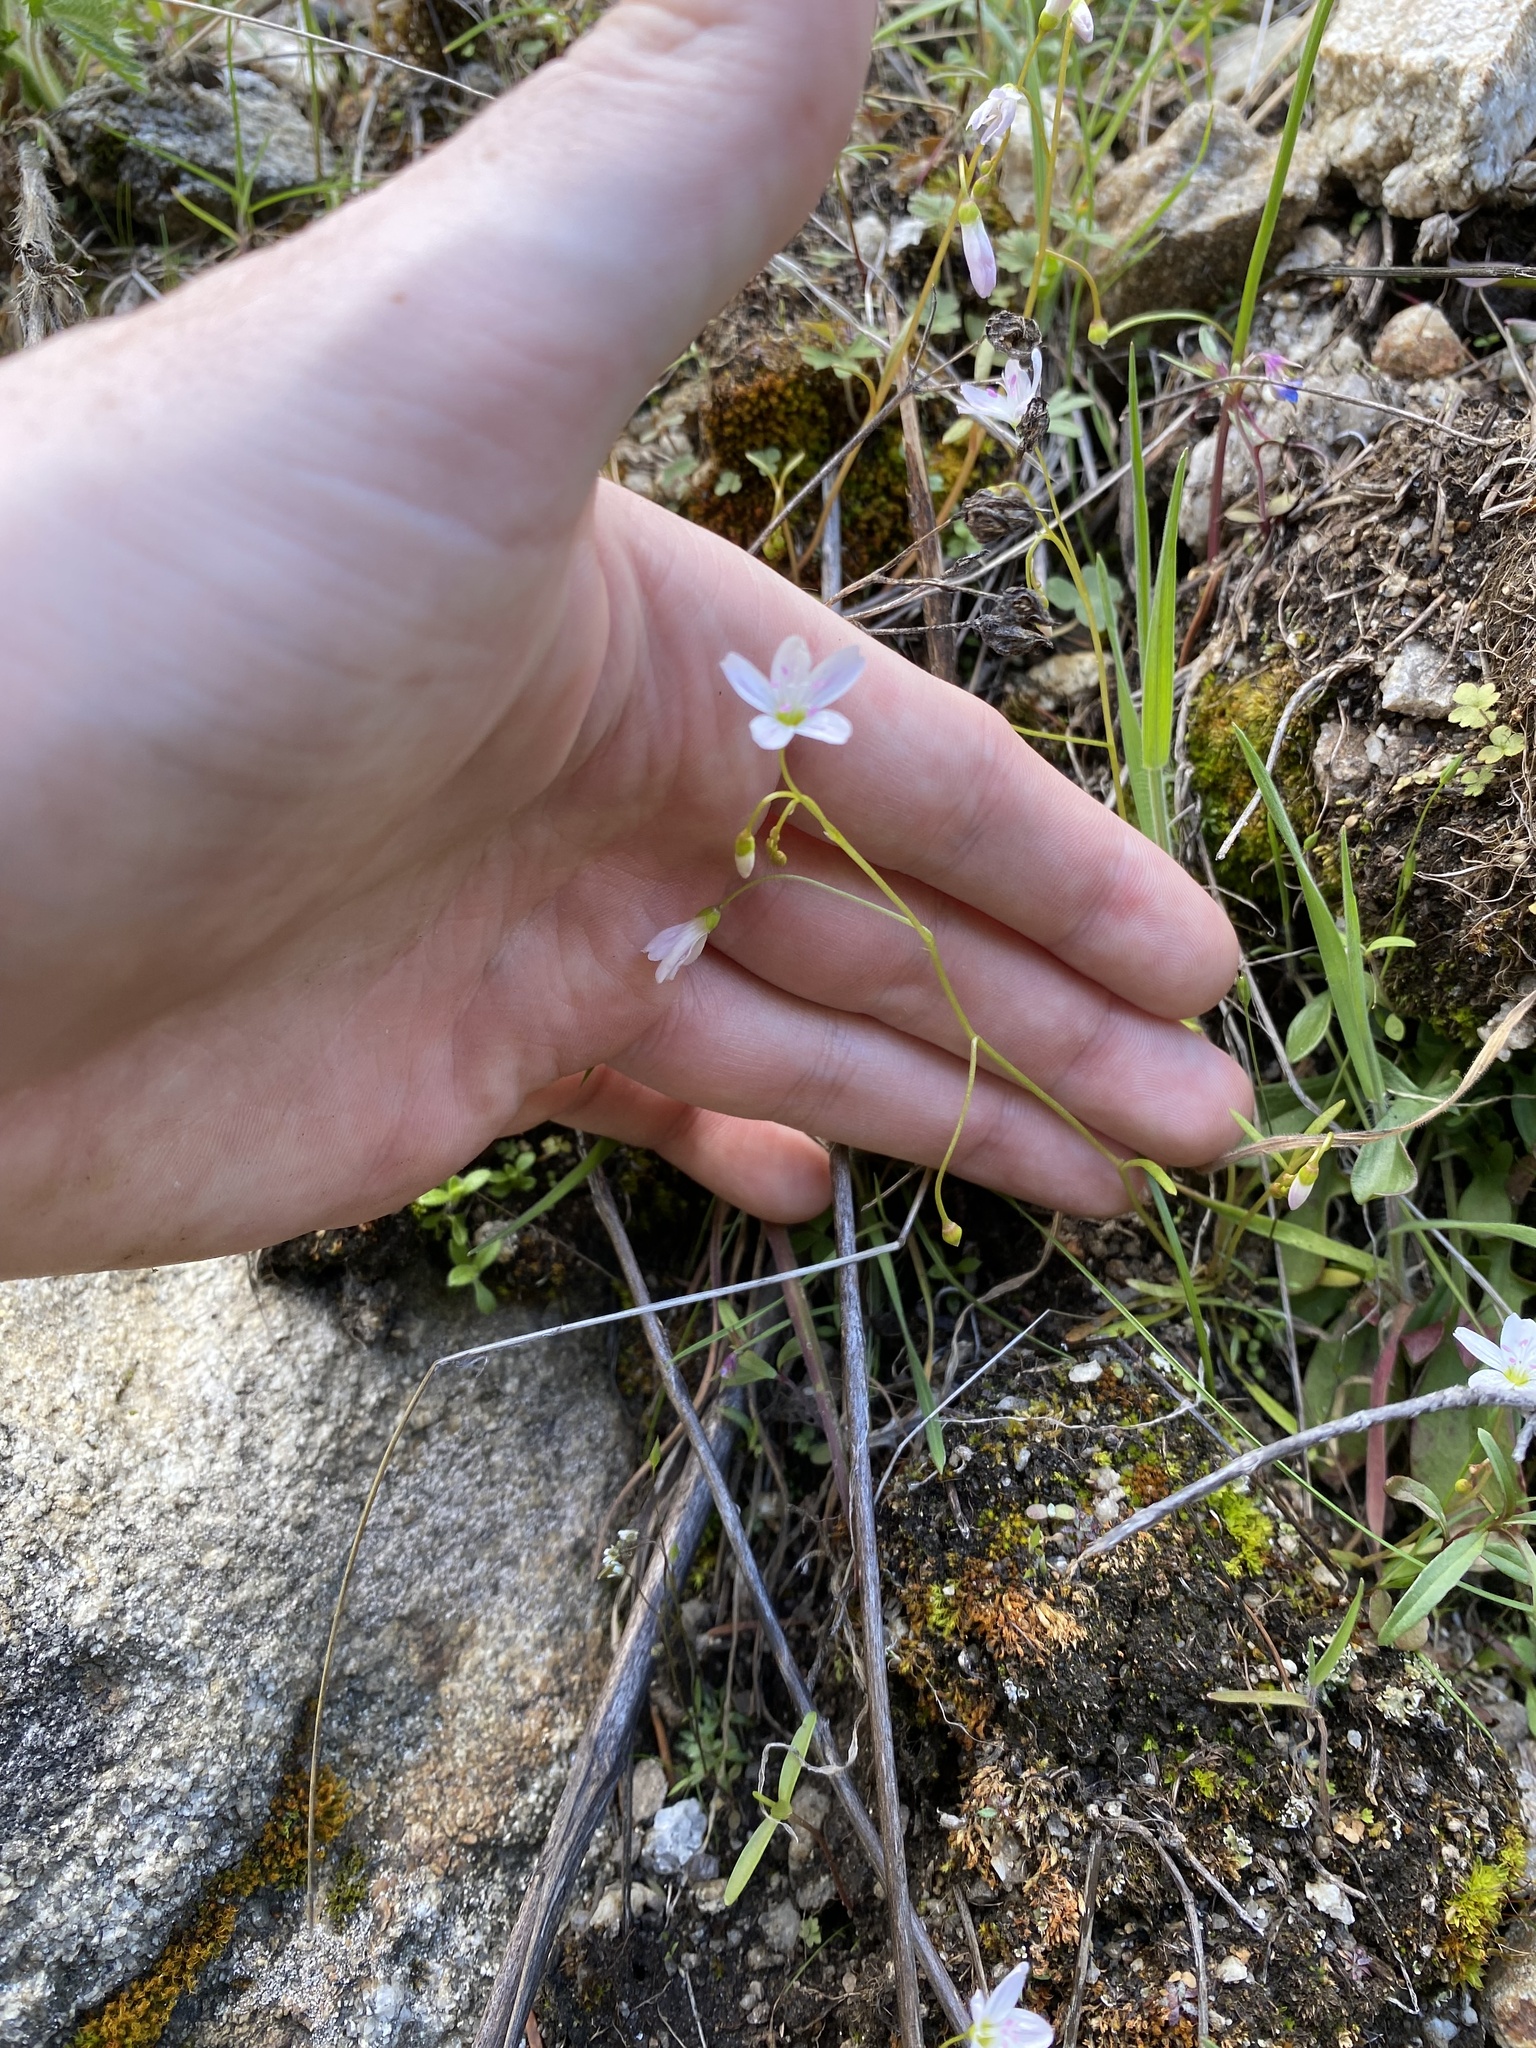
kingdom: Plantae
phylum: Tracheophyta
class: Magnoliopsida
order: Caryophyllales
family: Montiaceae
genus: Claytonia
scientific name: Claytonia arenicola
